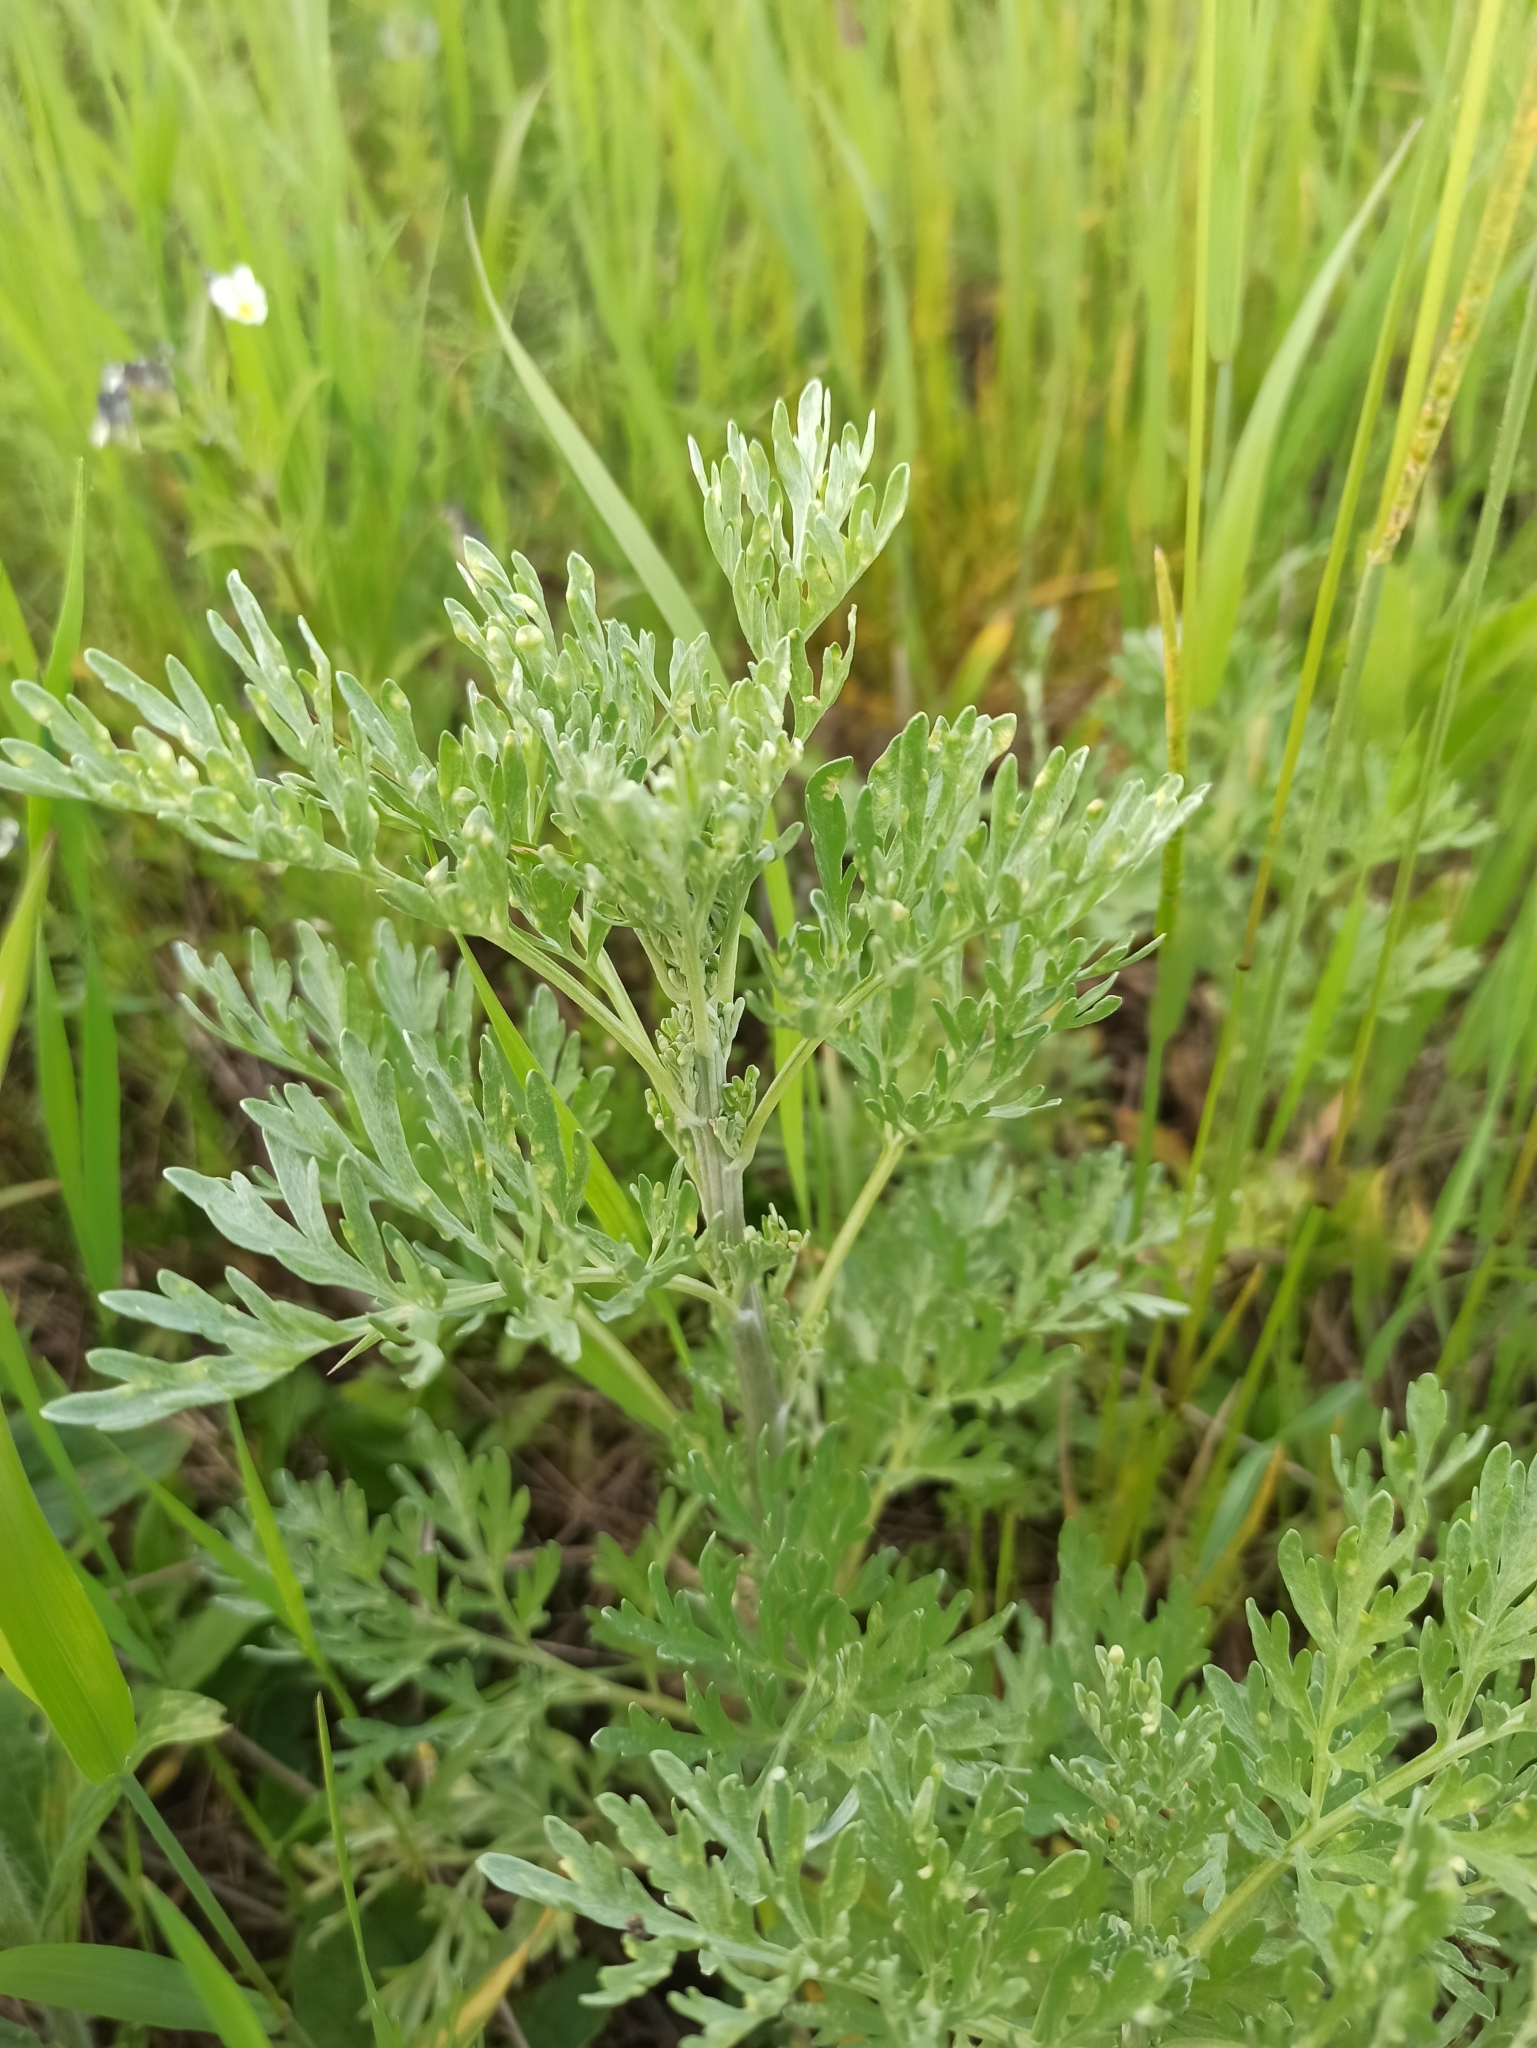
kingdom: Plantae
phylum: Tracheophyta
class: Magnoliopsida
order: Asterales
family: Asteraceae
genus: Artemisia
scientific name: Artemisia absinthium
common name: Wormwood
